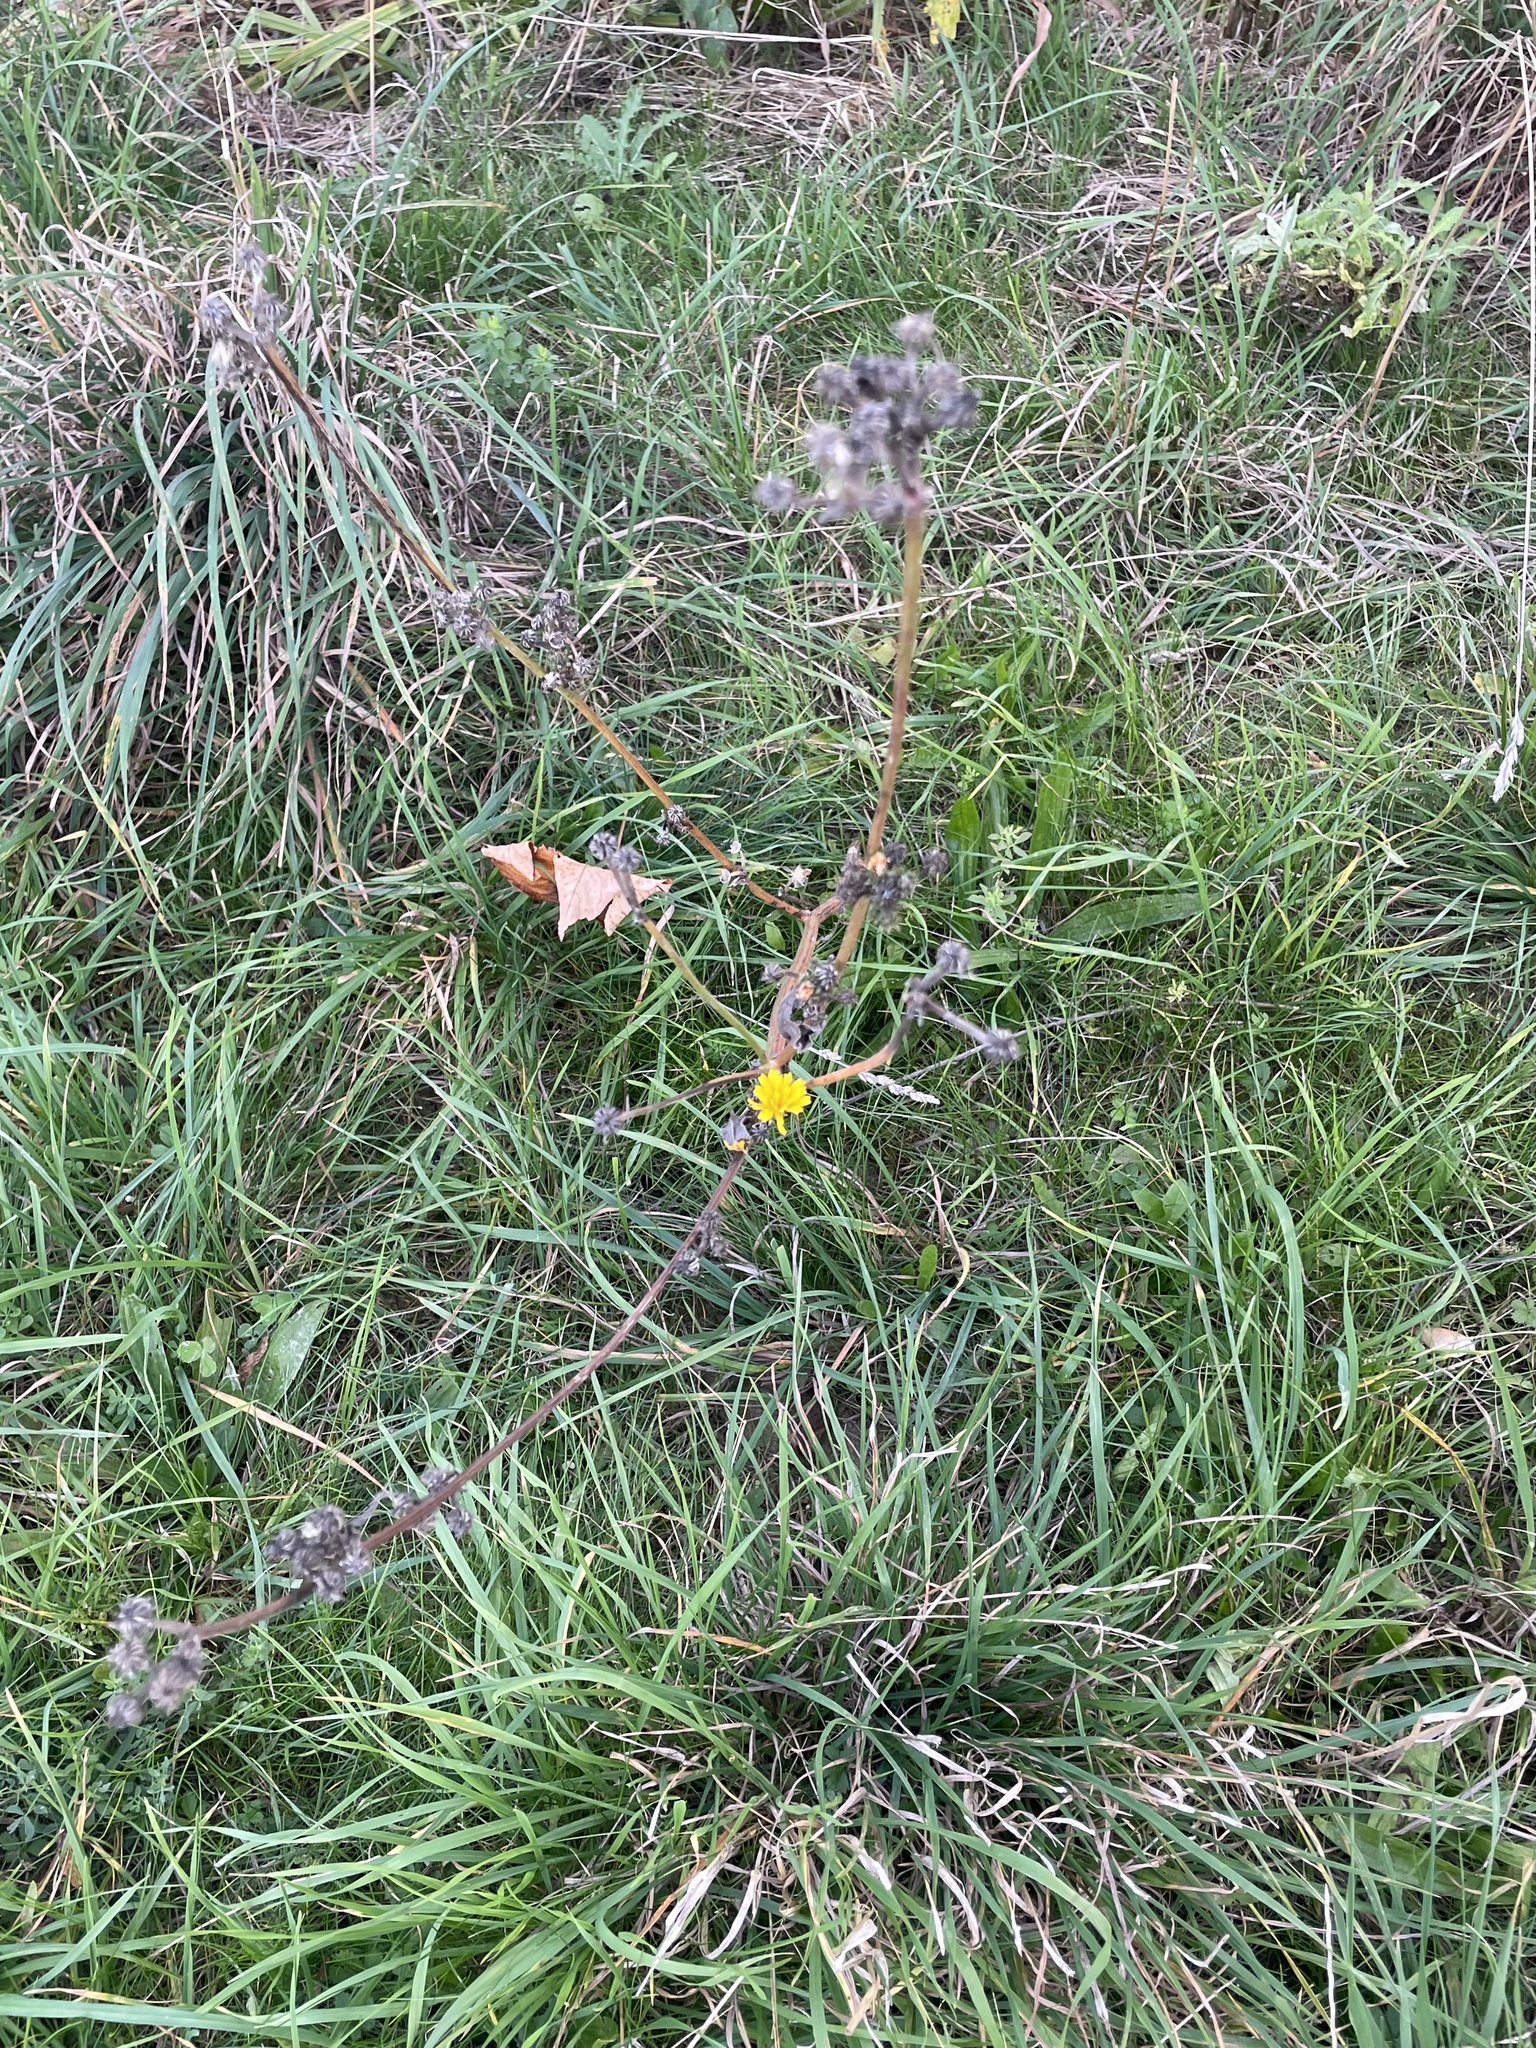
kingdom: Plantae
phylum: Tracheophyta
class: Magnoliopsida
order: Asterales
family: Asteraceae
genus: Picris
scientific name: Picris hieracioides
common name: Hawkweed oxtongue
